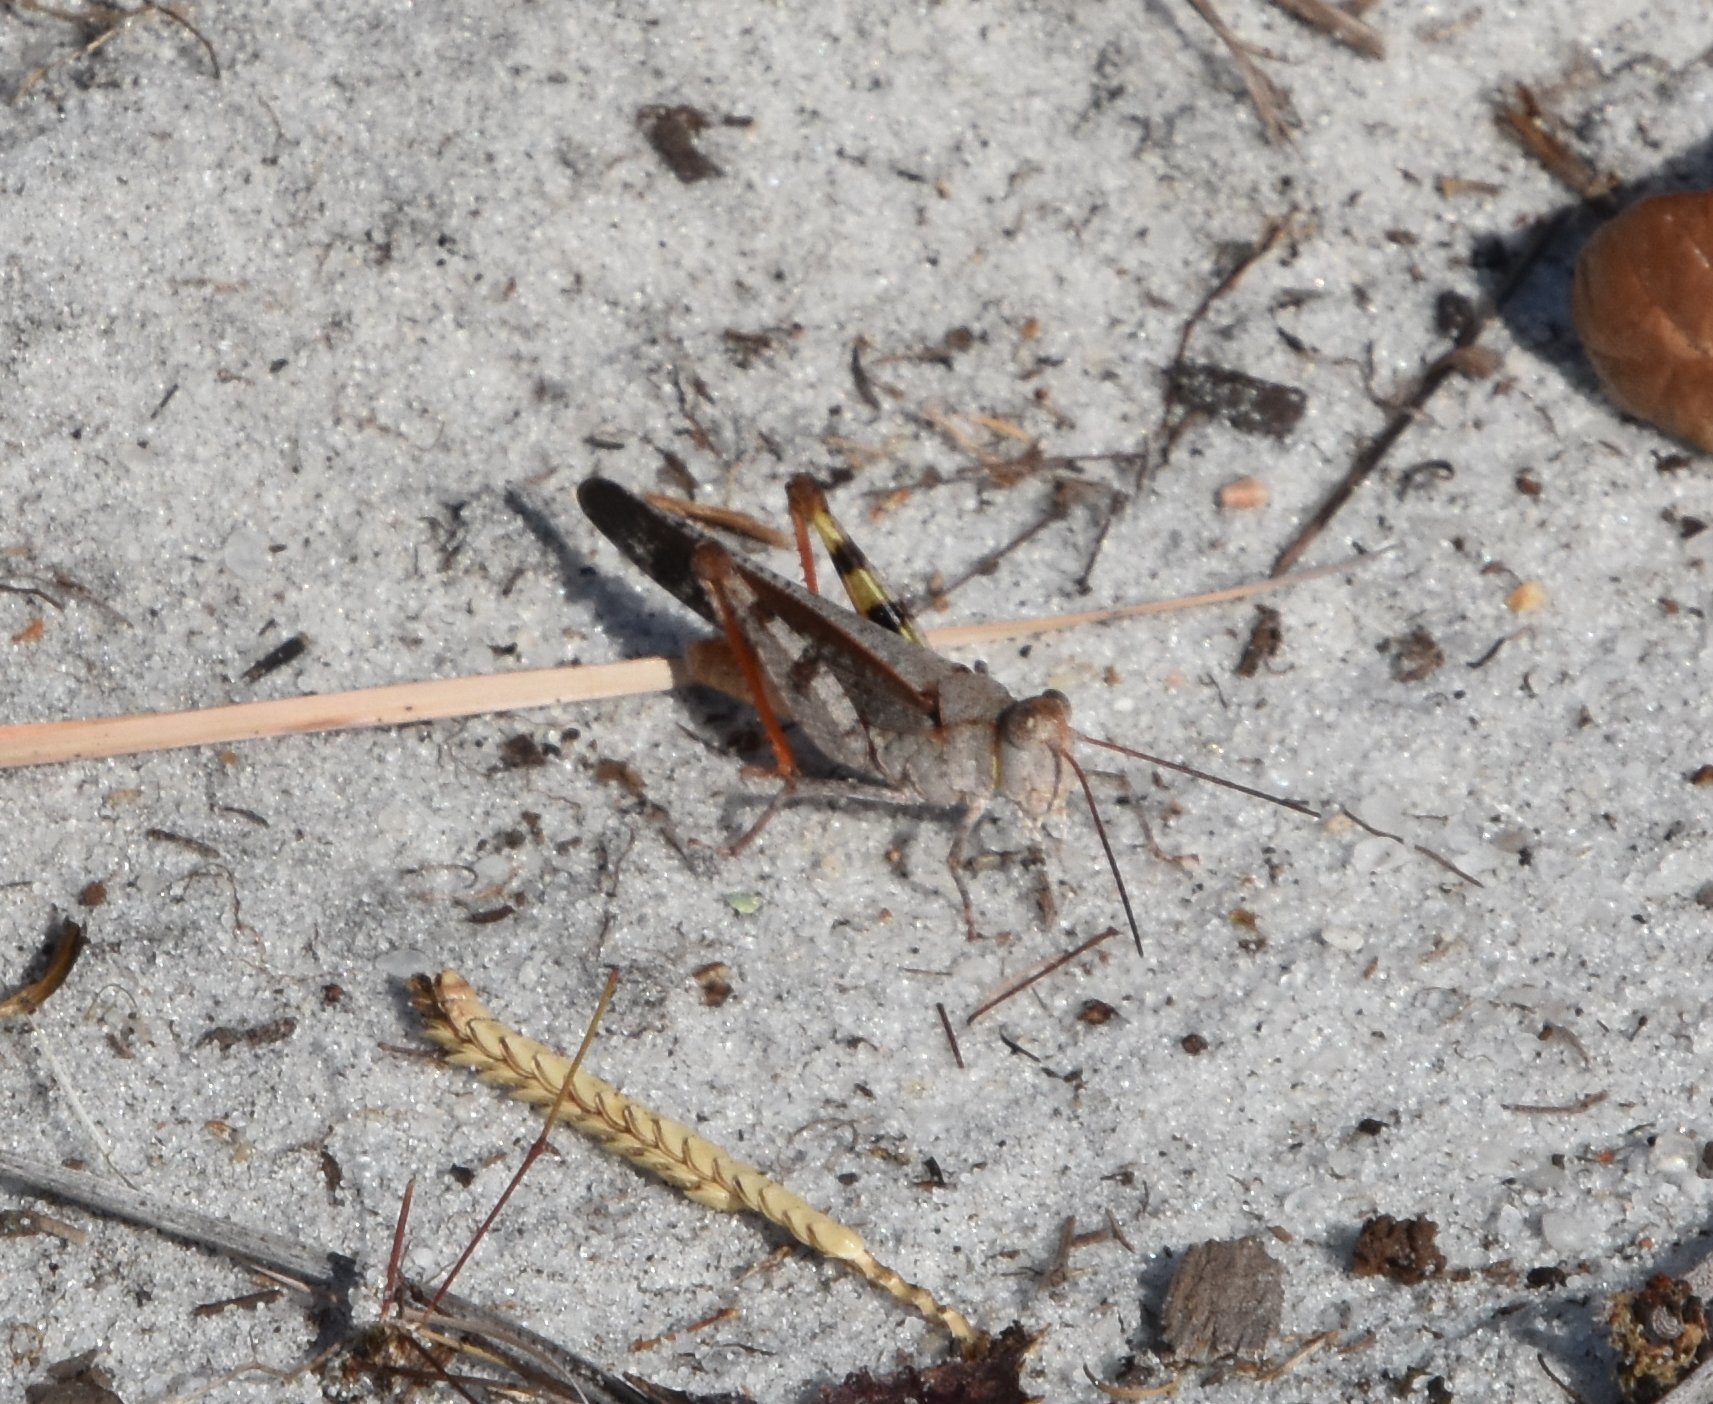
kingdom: Animalia
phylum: Arthropoda
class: Insecta
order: Orthoptera
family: Acrididae
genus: Spharagemon
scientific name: Spharagemon marmoratum
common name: Marbled grasshopper
